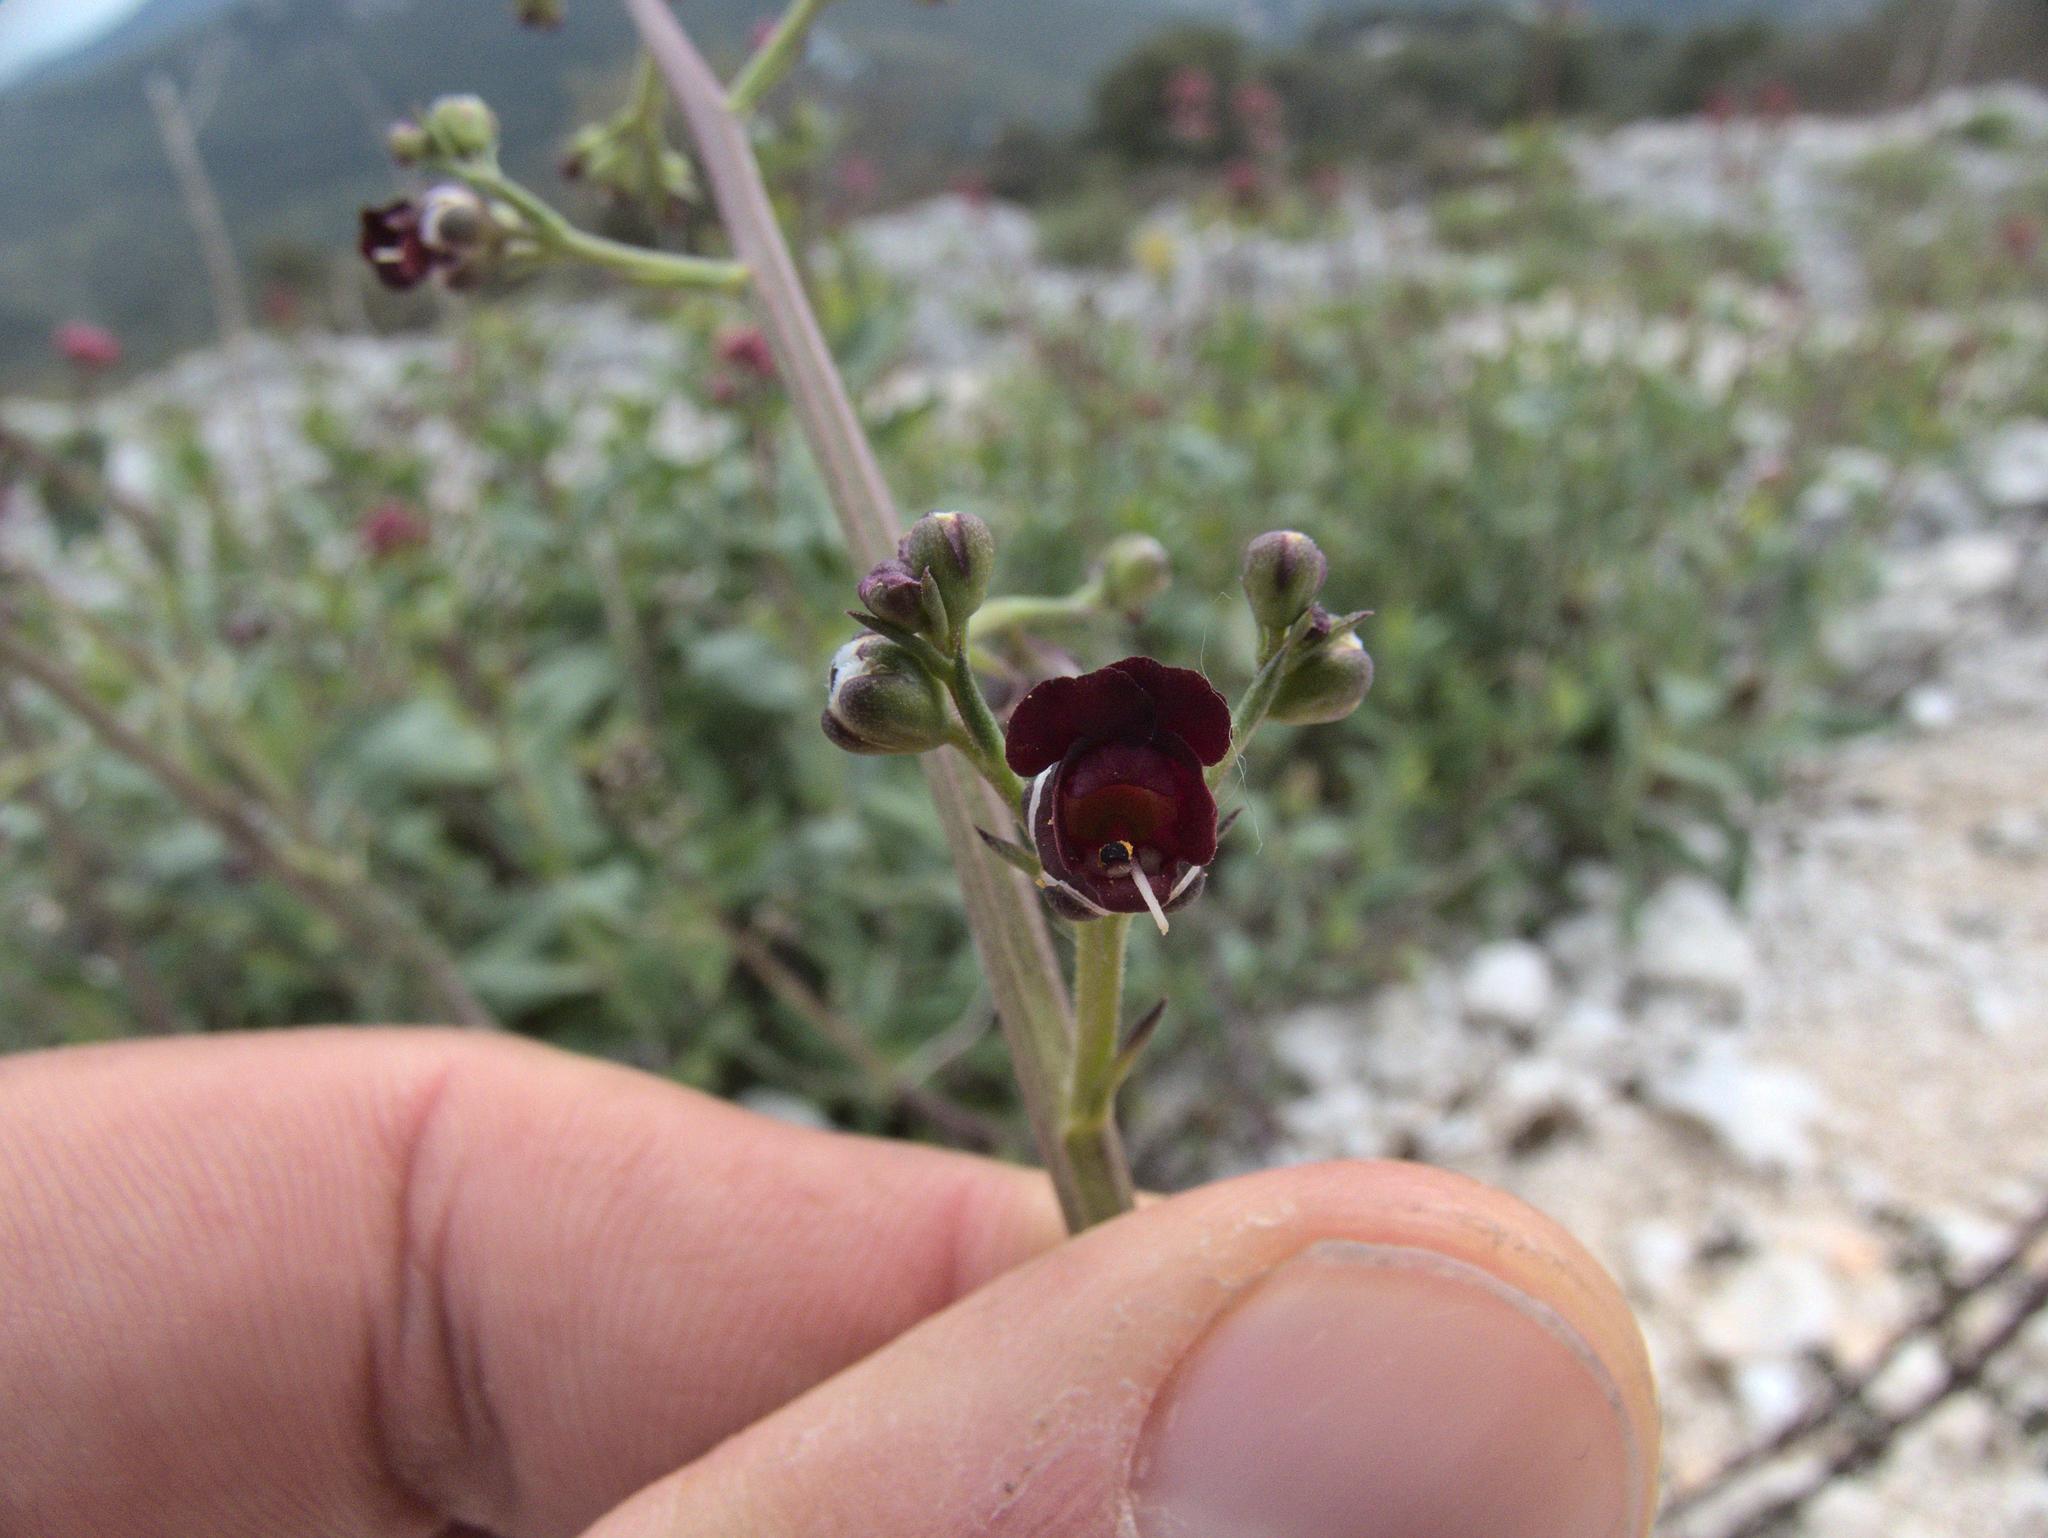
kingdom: Plantae
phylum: Tracheophyta
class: Magnoliopsida
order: Lamiales
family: Scrophulariaceae
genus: Scrophularia
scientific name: Scrophularia canina
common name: French figwort
